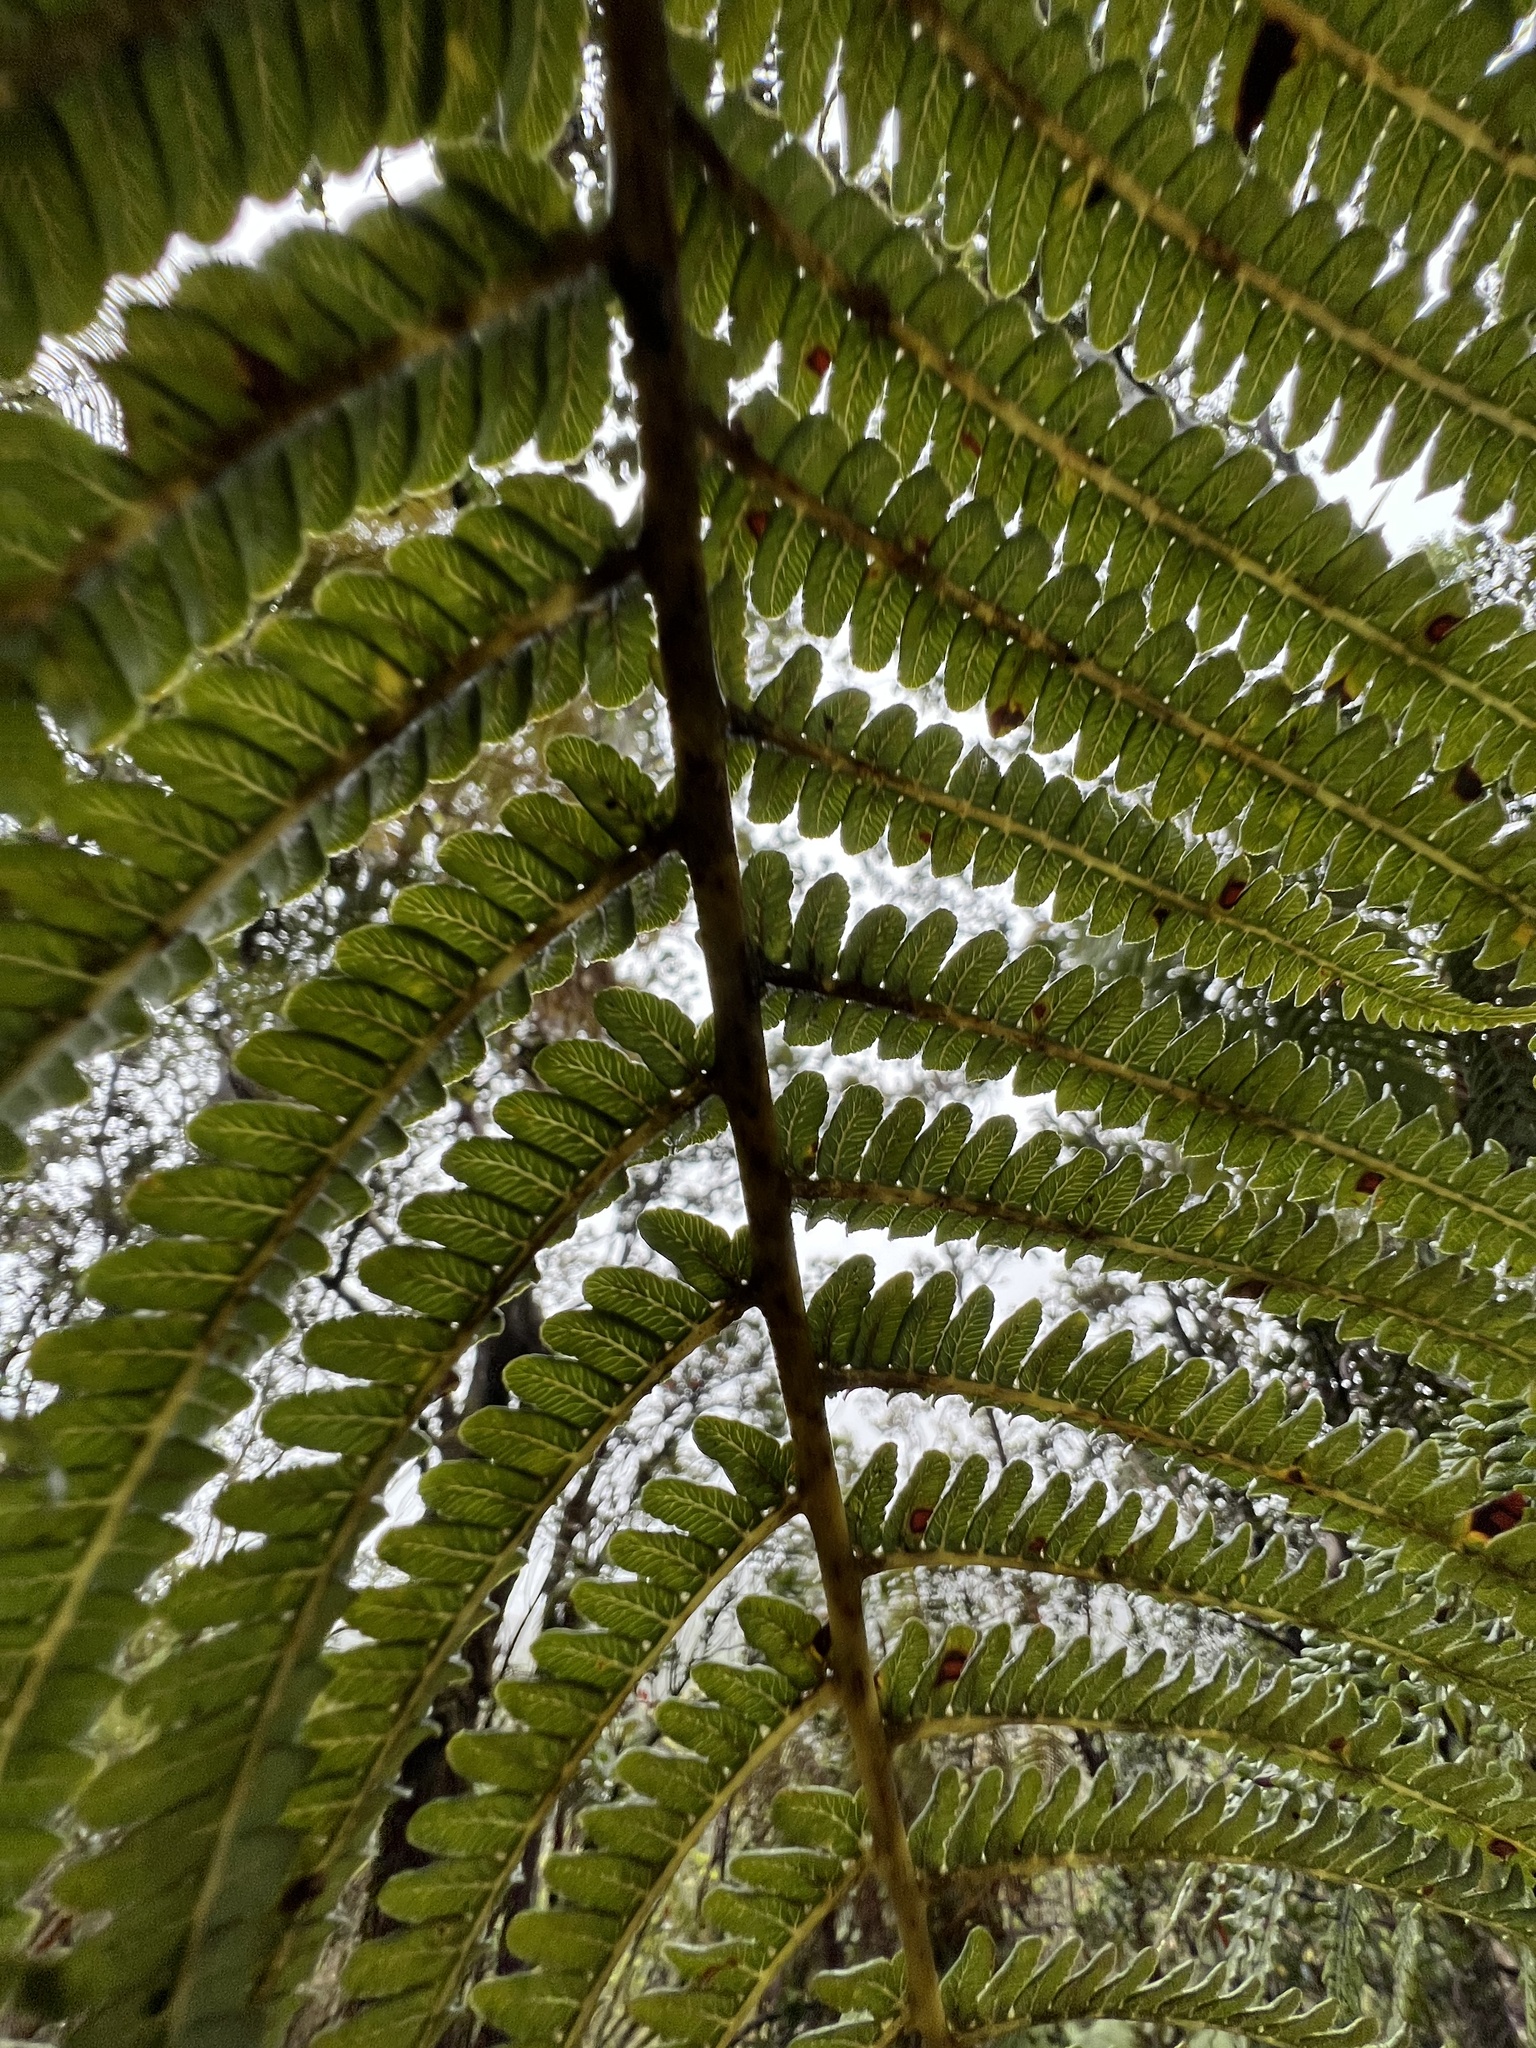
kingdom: Plantae
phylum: Tracheophyta
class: Polypodiopsida
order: Cyatheales
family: Cibotiaceae
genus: Cibotium
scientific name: Cibotium glaucum
